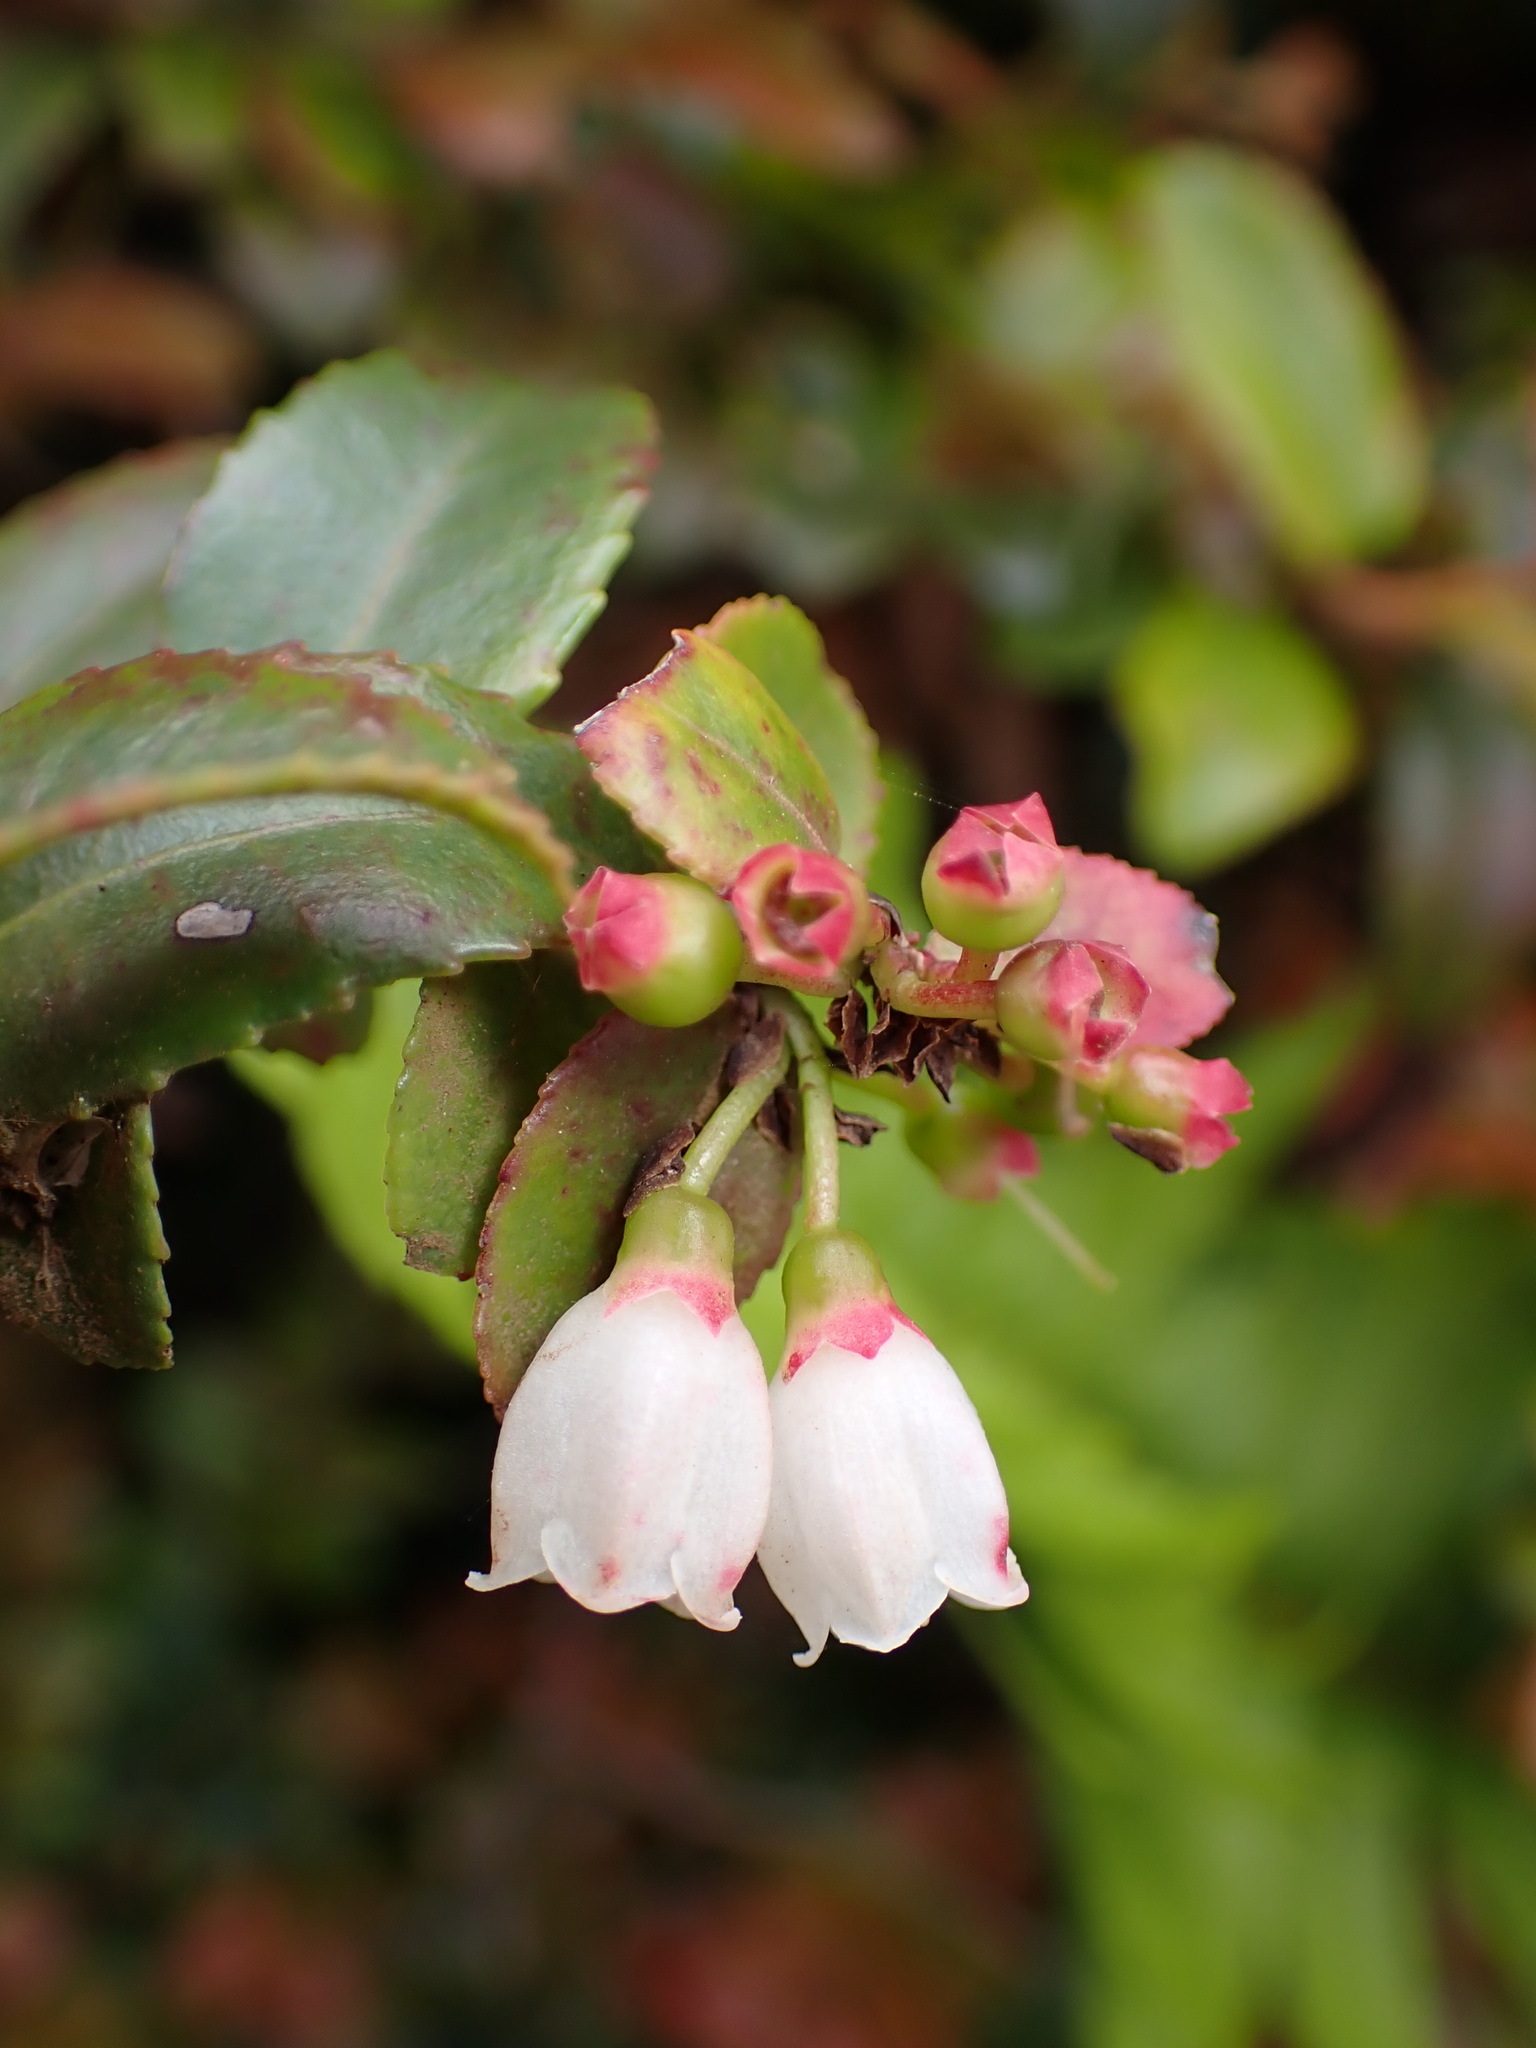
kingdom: Plantae
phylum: Tracheophyta
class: Magnoliopsida
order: Ericales
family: Ericaceae
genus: Vaccinium
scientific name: Vaccinium ovatum
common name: California-huckleberry
